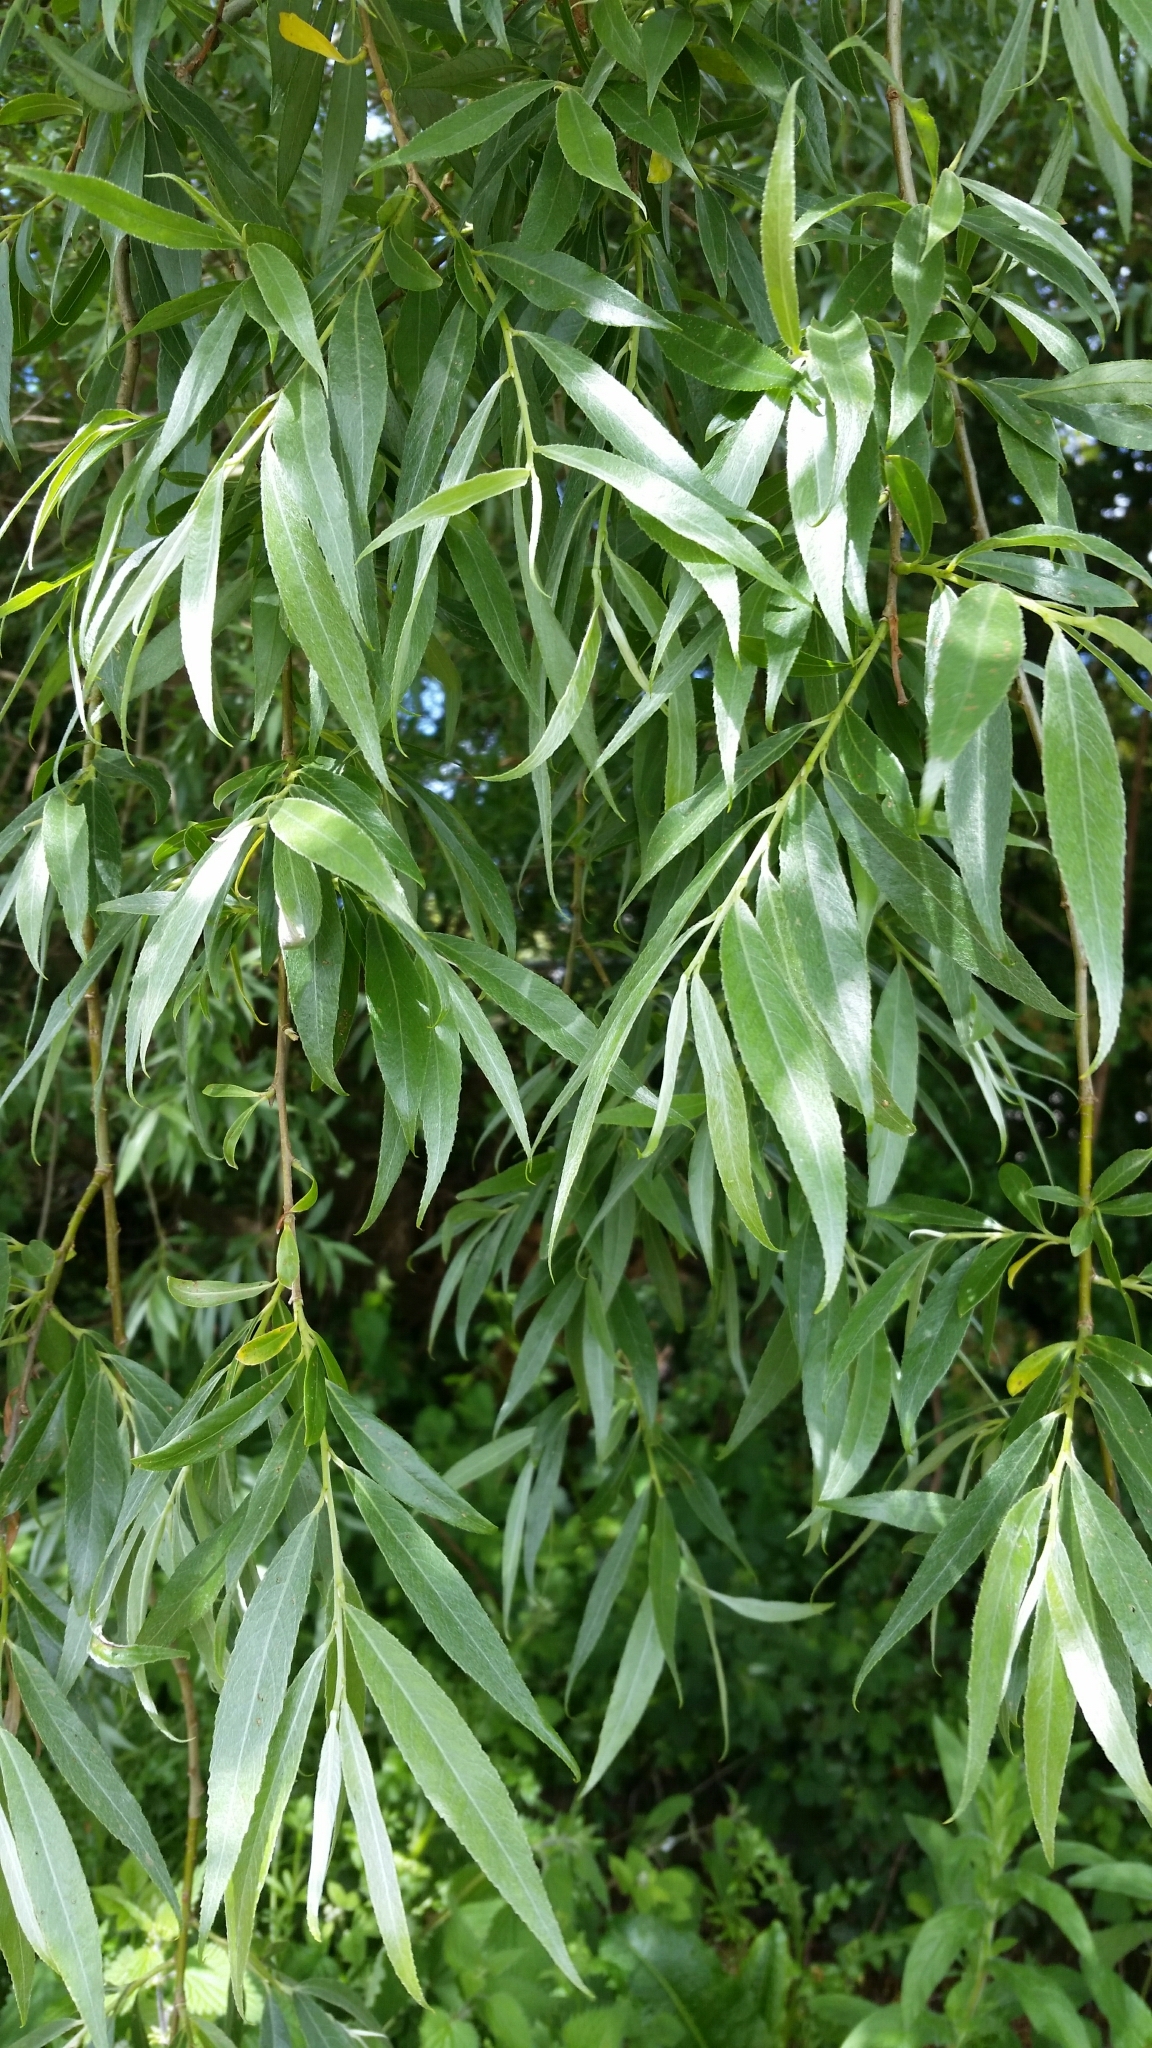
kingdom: Plantae
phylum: Tracheophyta
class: Magnoliopsida
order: Malpighiales
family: Salicaceae
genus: Salix
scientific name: Salix alba
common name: White willow
